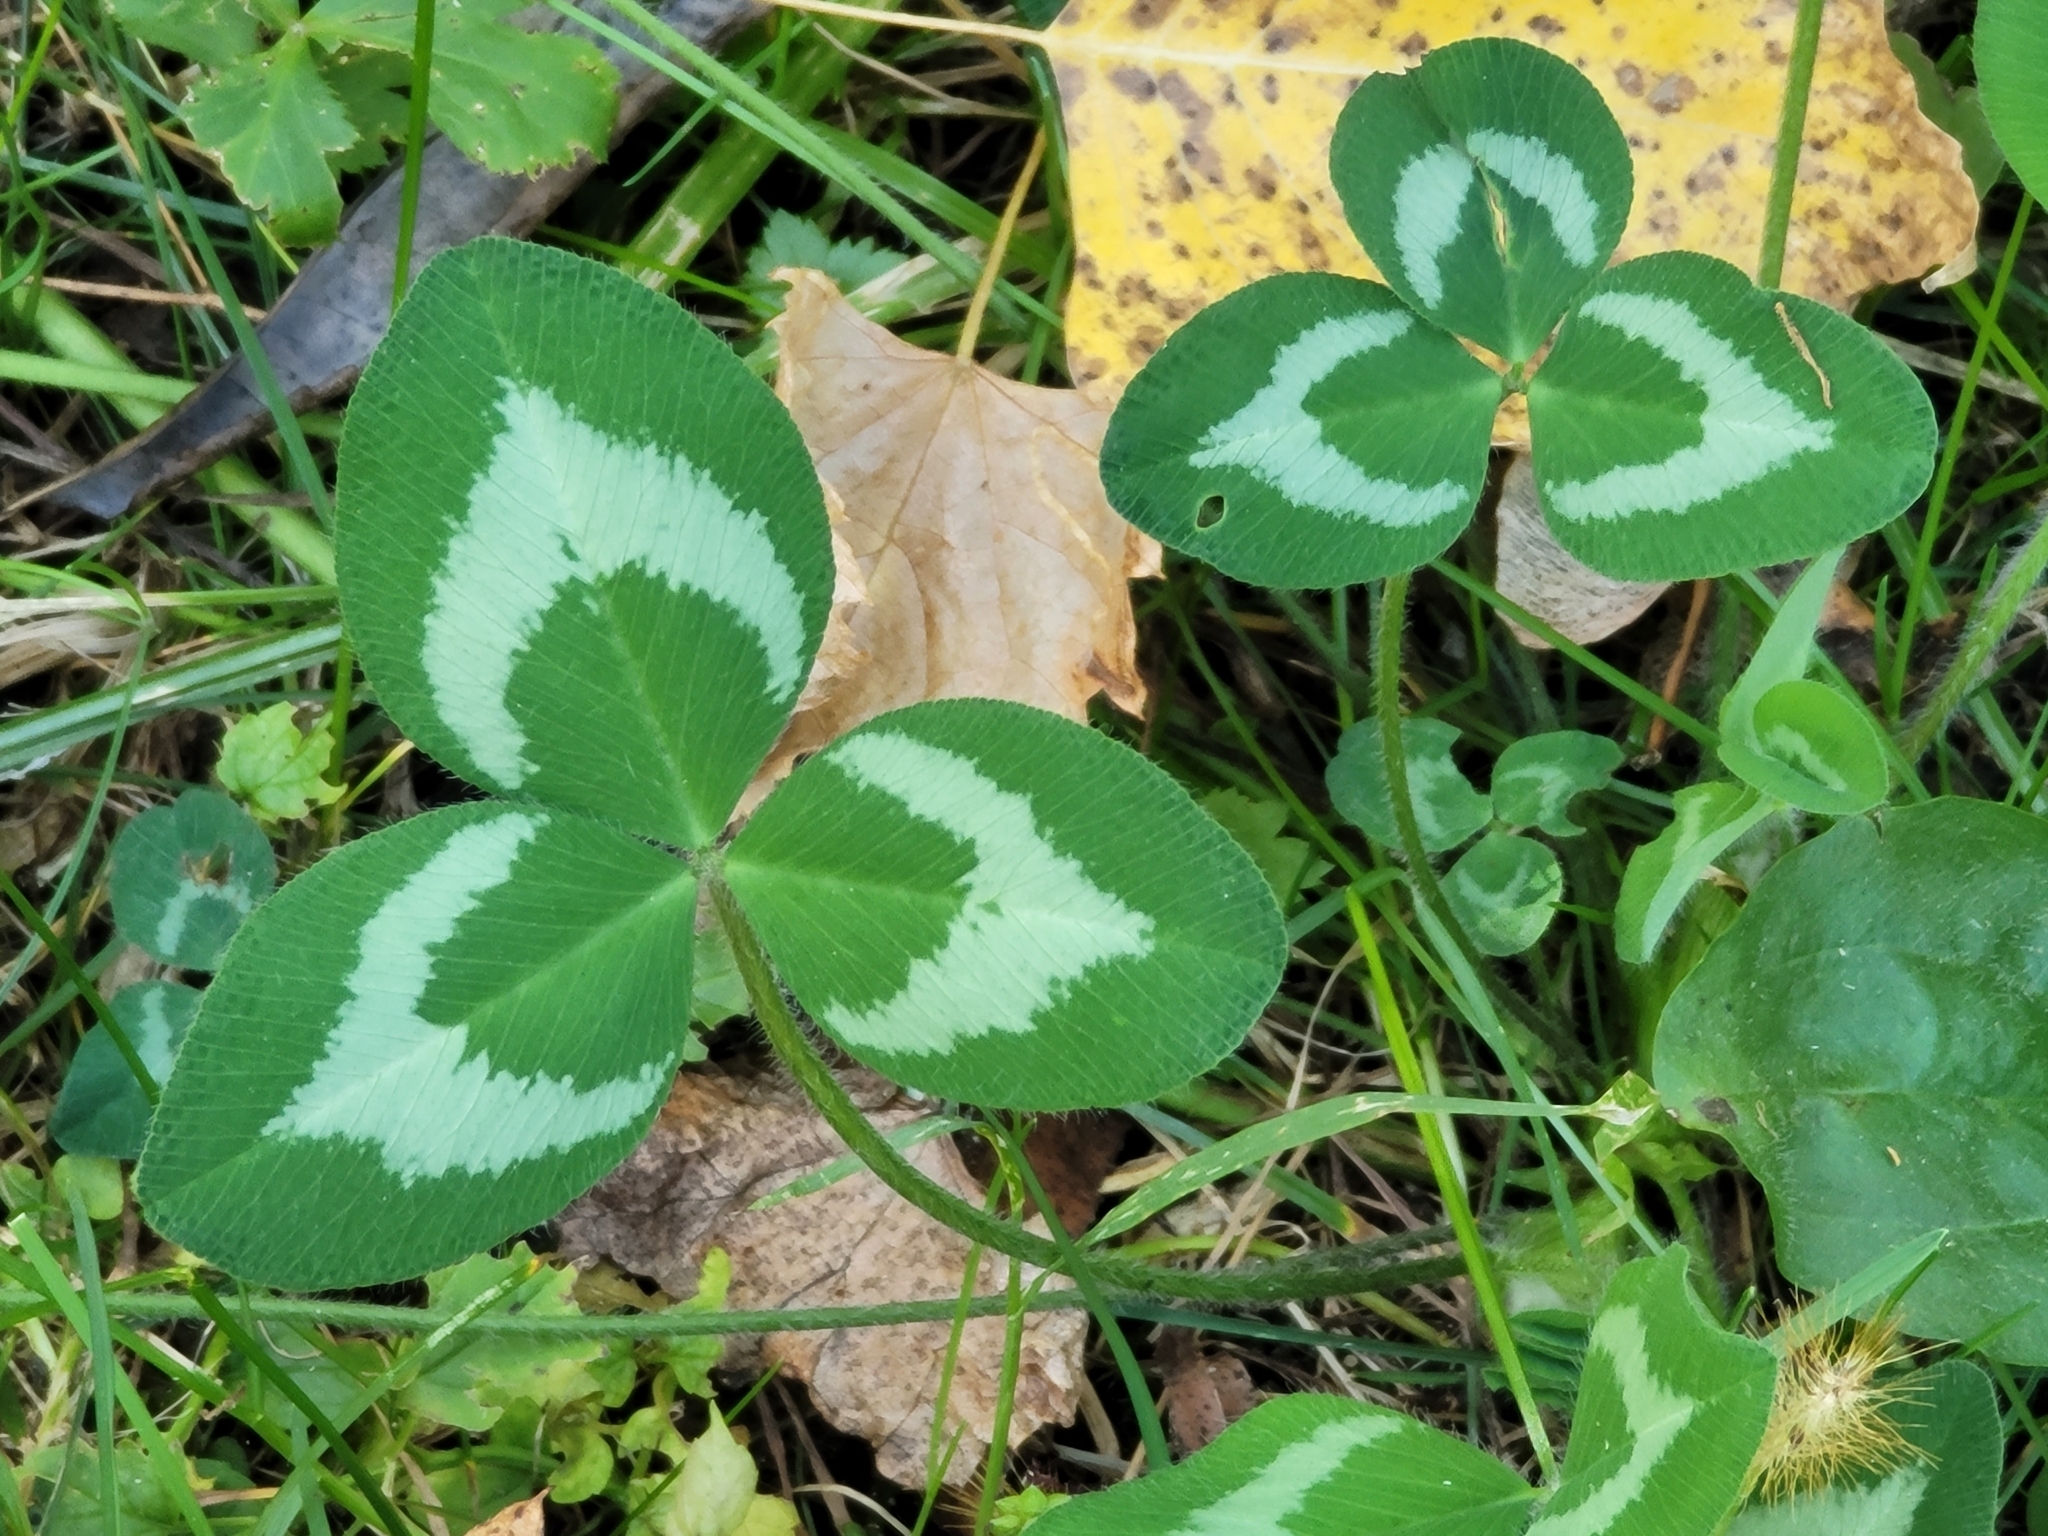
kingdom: Plantae
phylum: Tracheophyta
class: Magnoliopsida
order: Fabales
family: Fabaceae
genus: Trifolium
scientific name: Trifolium pratense
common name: Red clover
